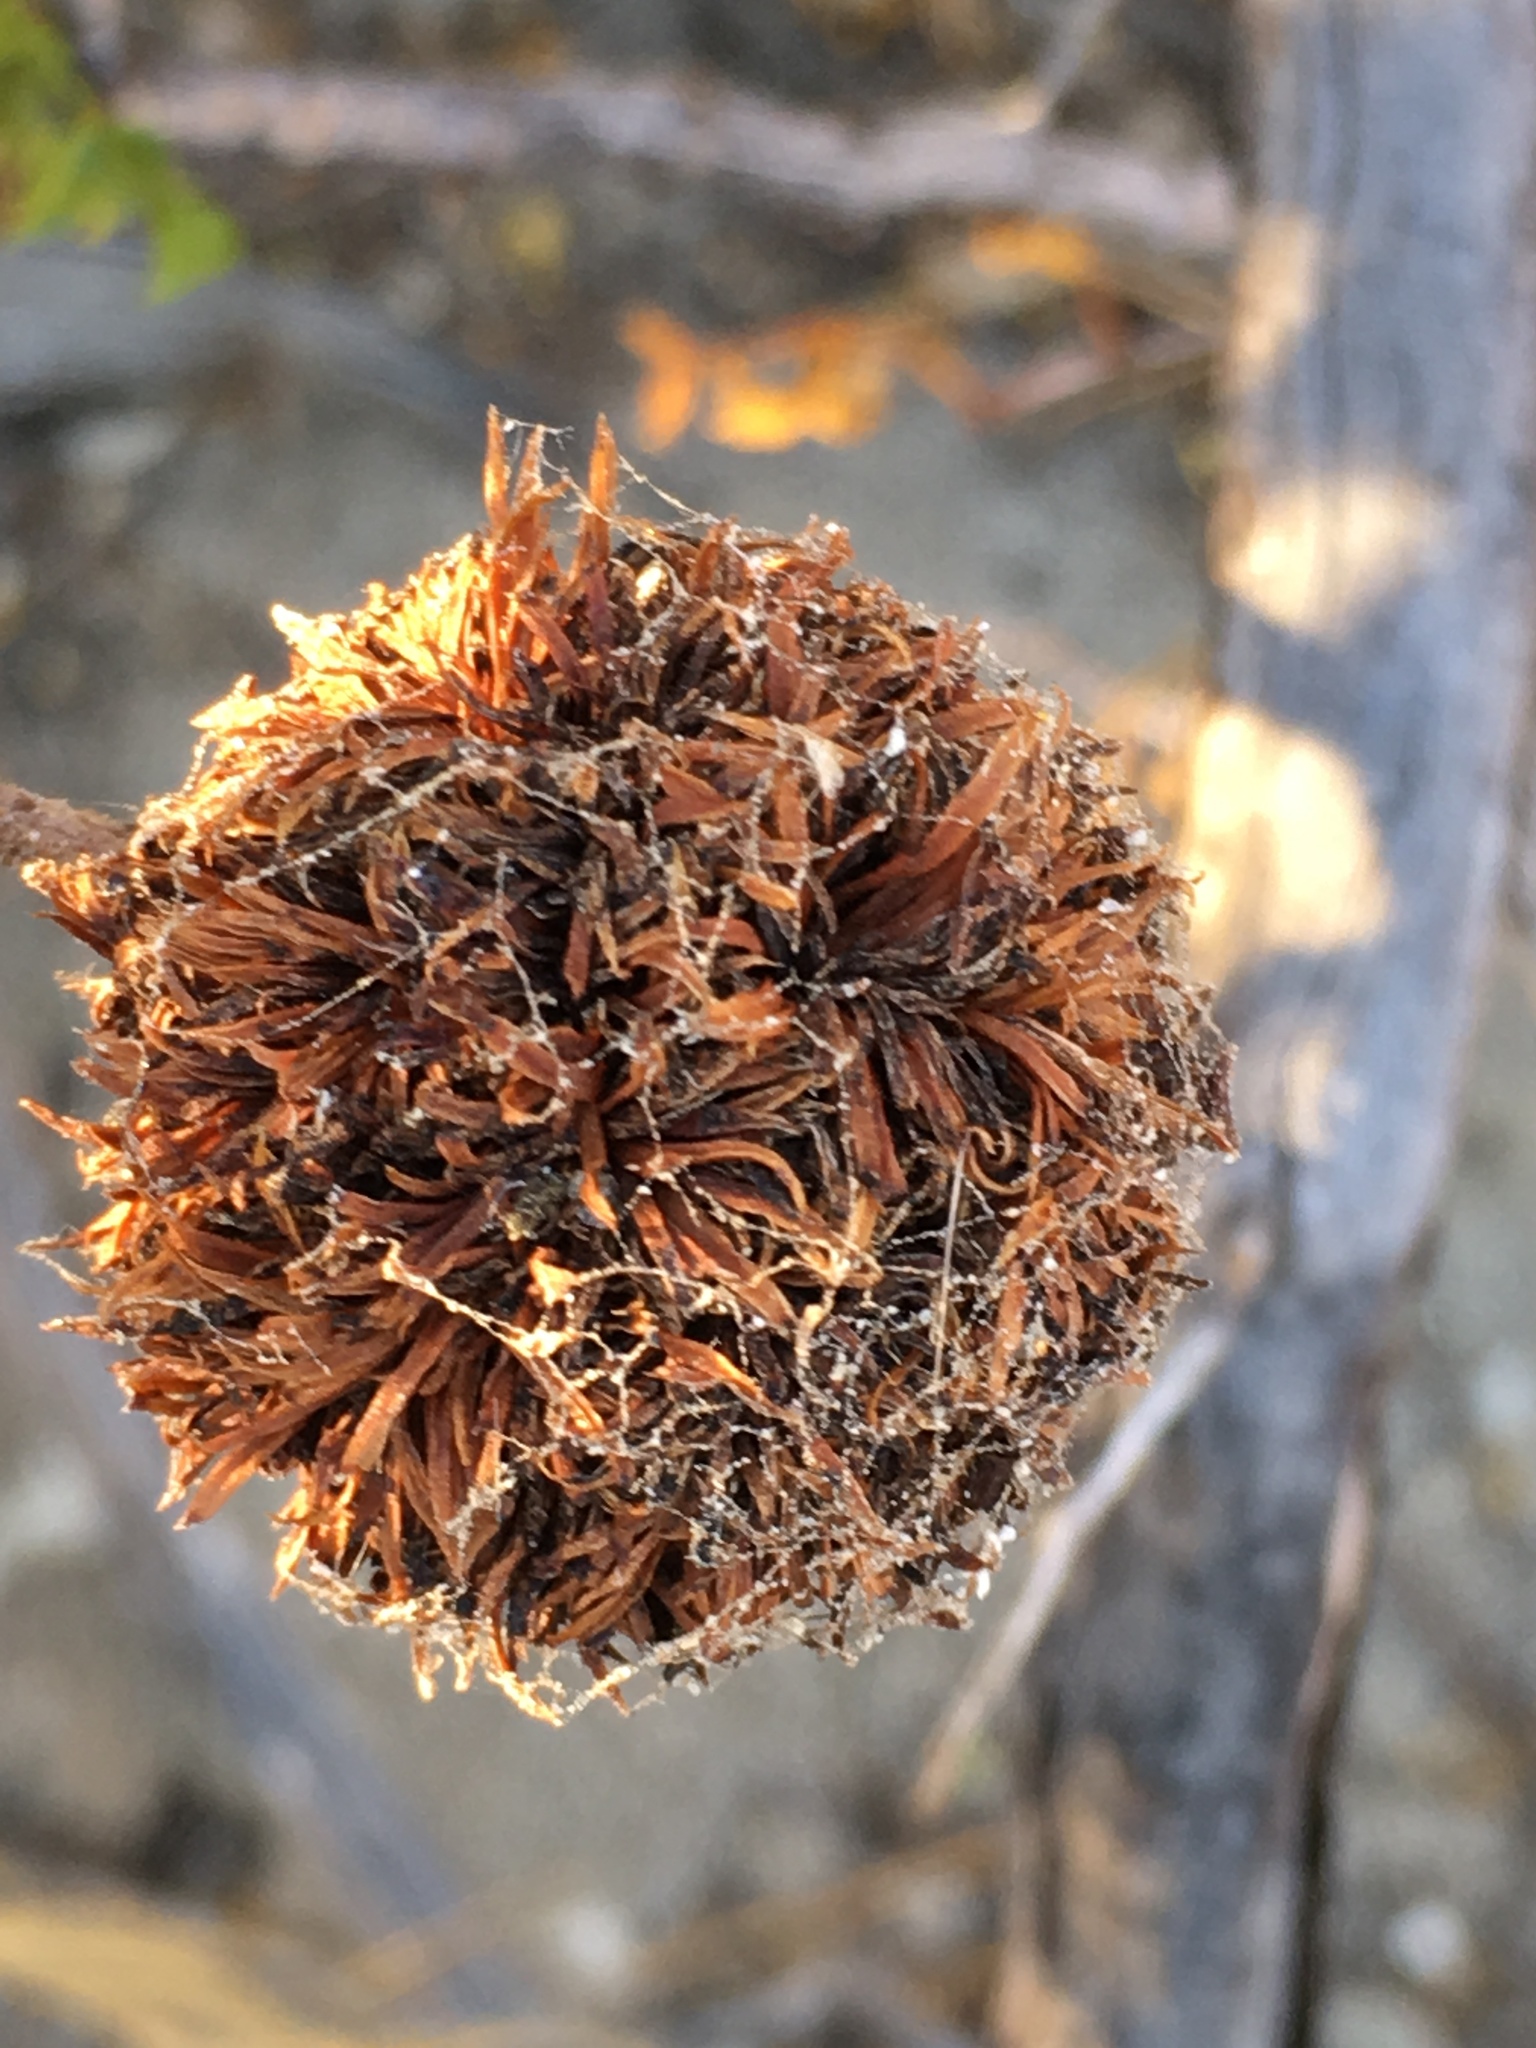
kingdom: Animalia
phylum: Arthropoda
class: Insecta
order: Diptera
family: Cecidomyiidae
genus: Asphondylia
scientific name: Asphondylia auripila
